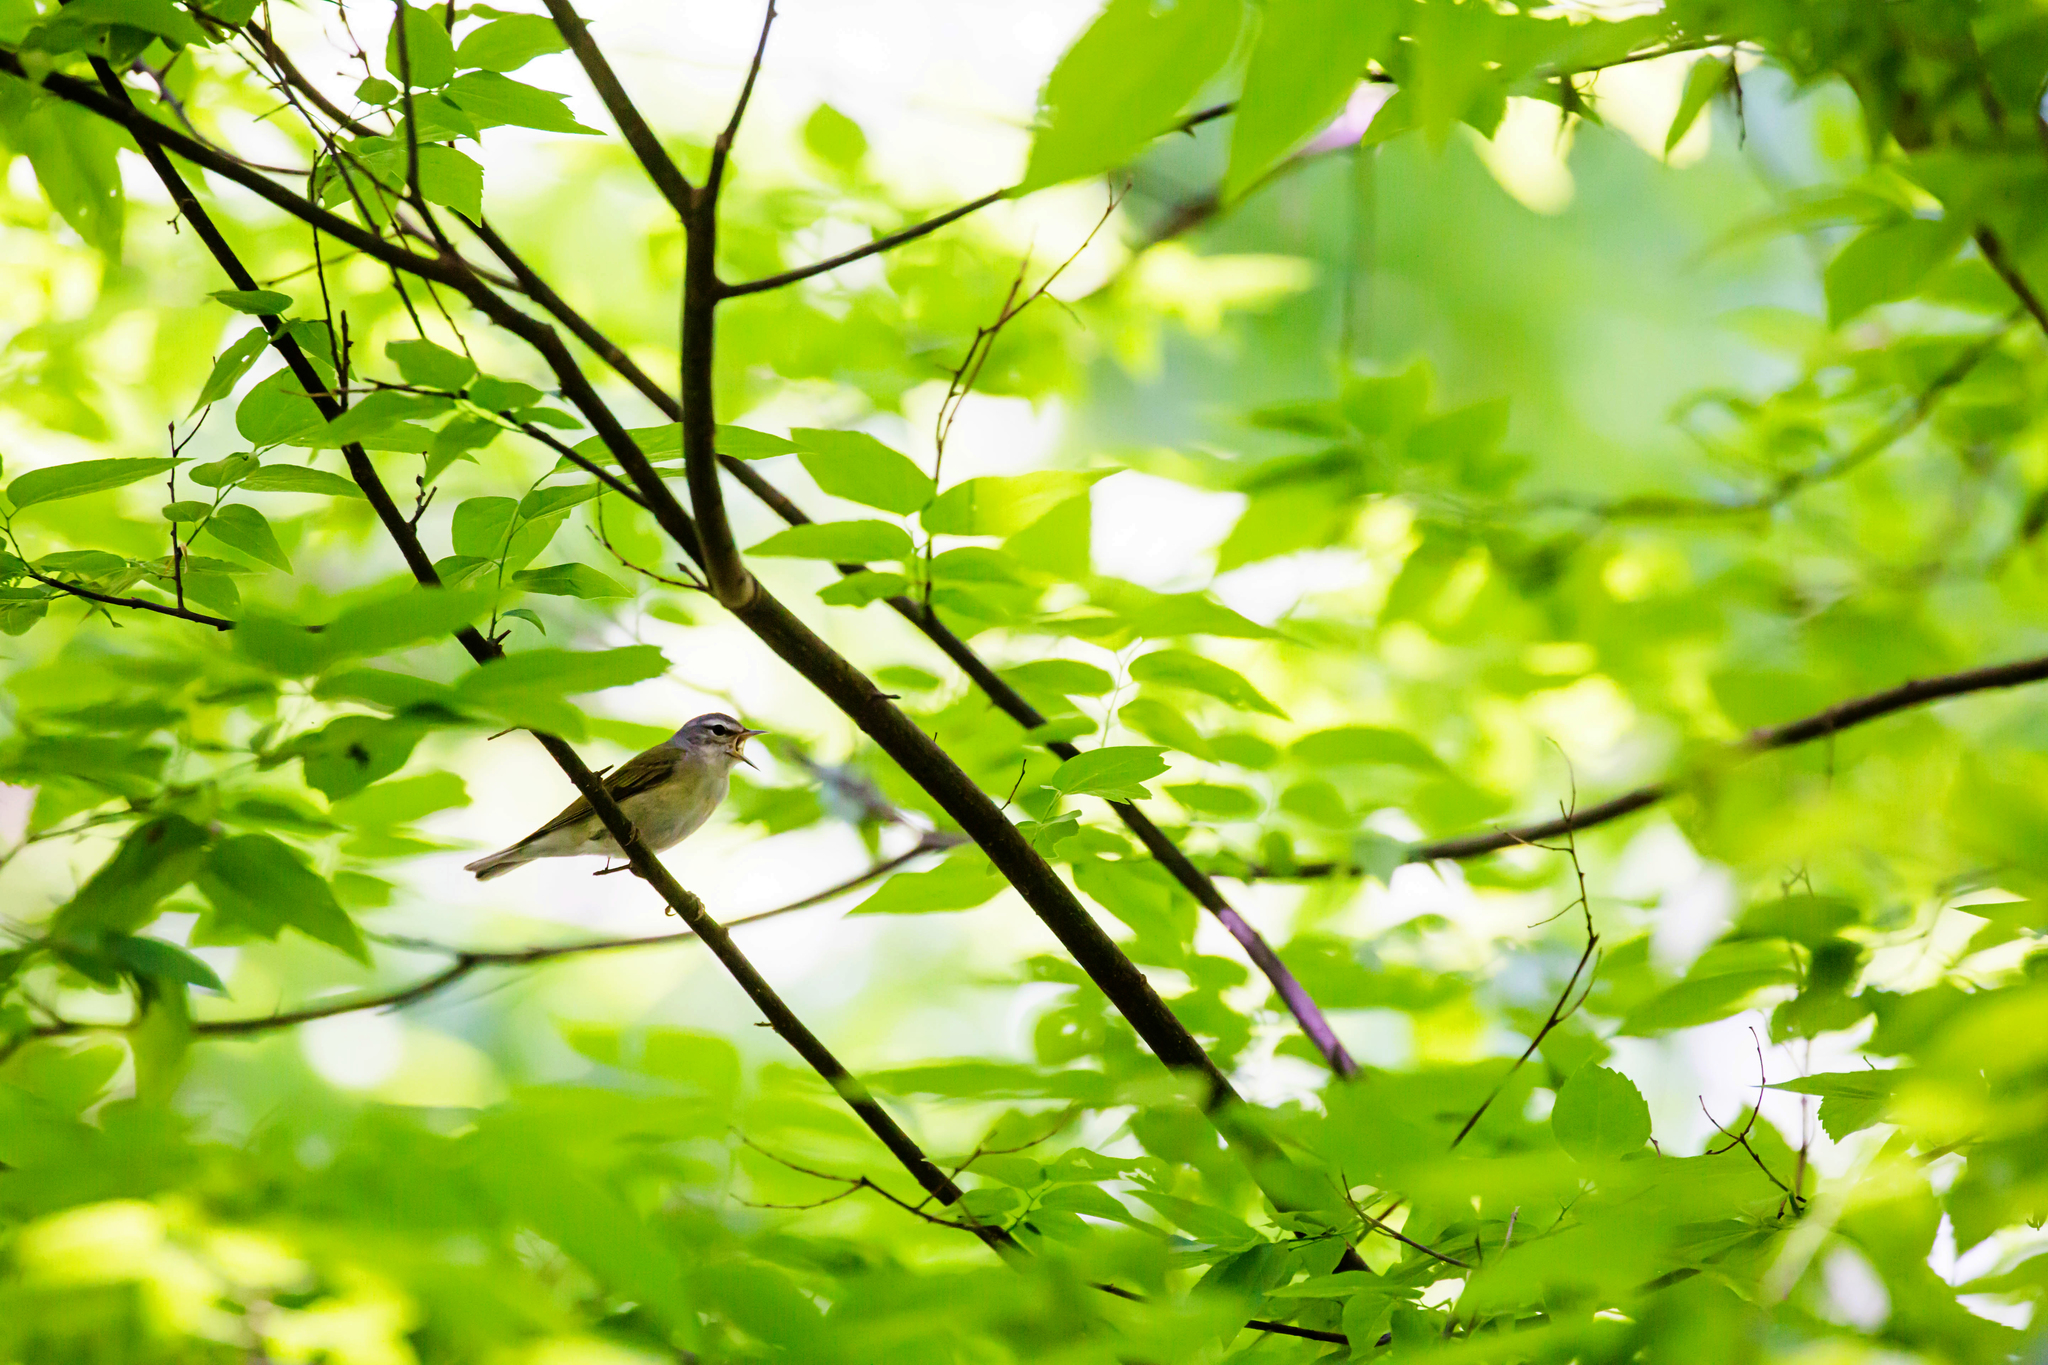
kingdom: Animalia
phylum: Chordata
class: Aves
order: Passeriformes
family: Parulidae
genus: Leiothlypis
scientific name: Leiothlypis peregrina
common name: Tennessee warbler
